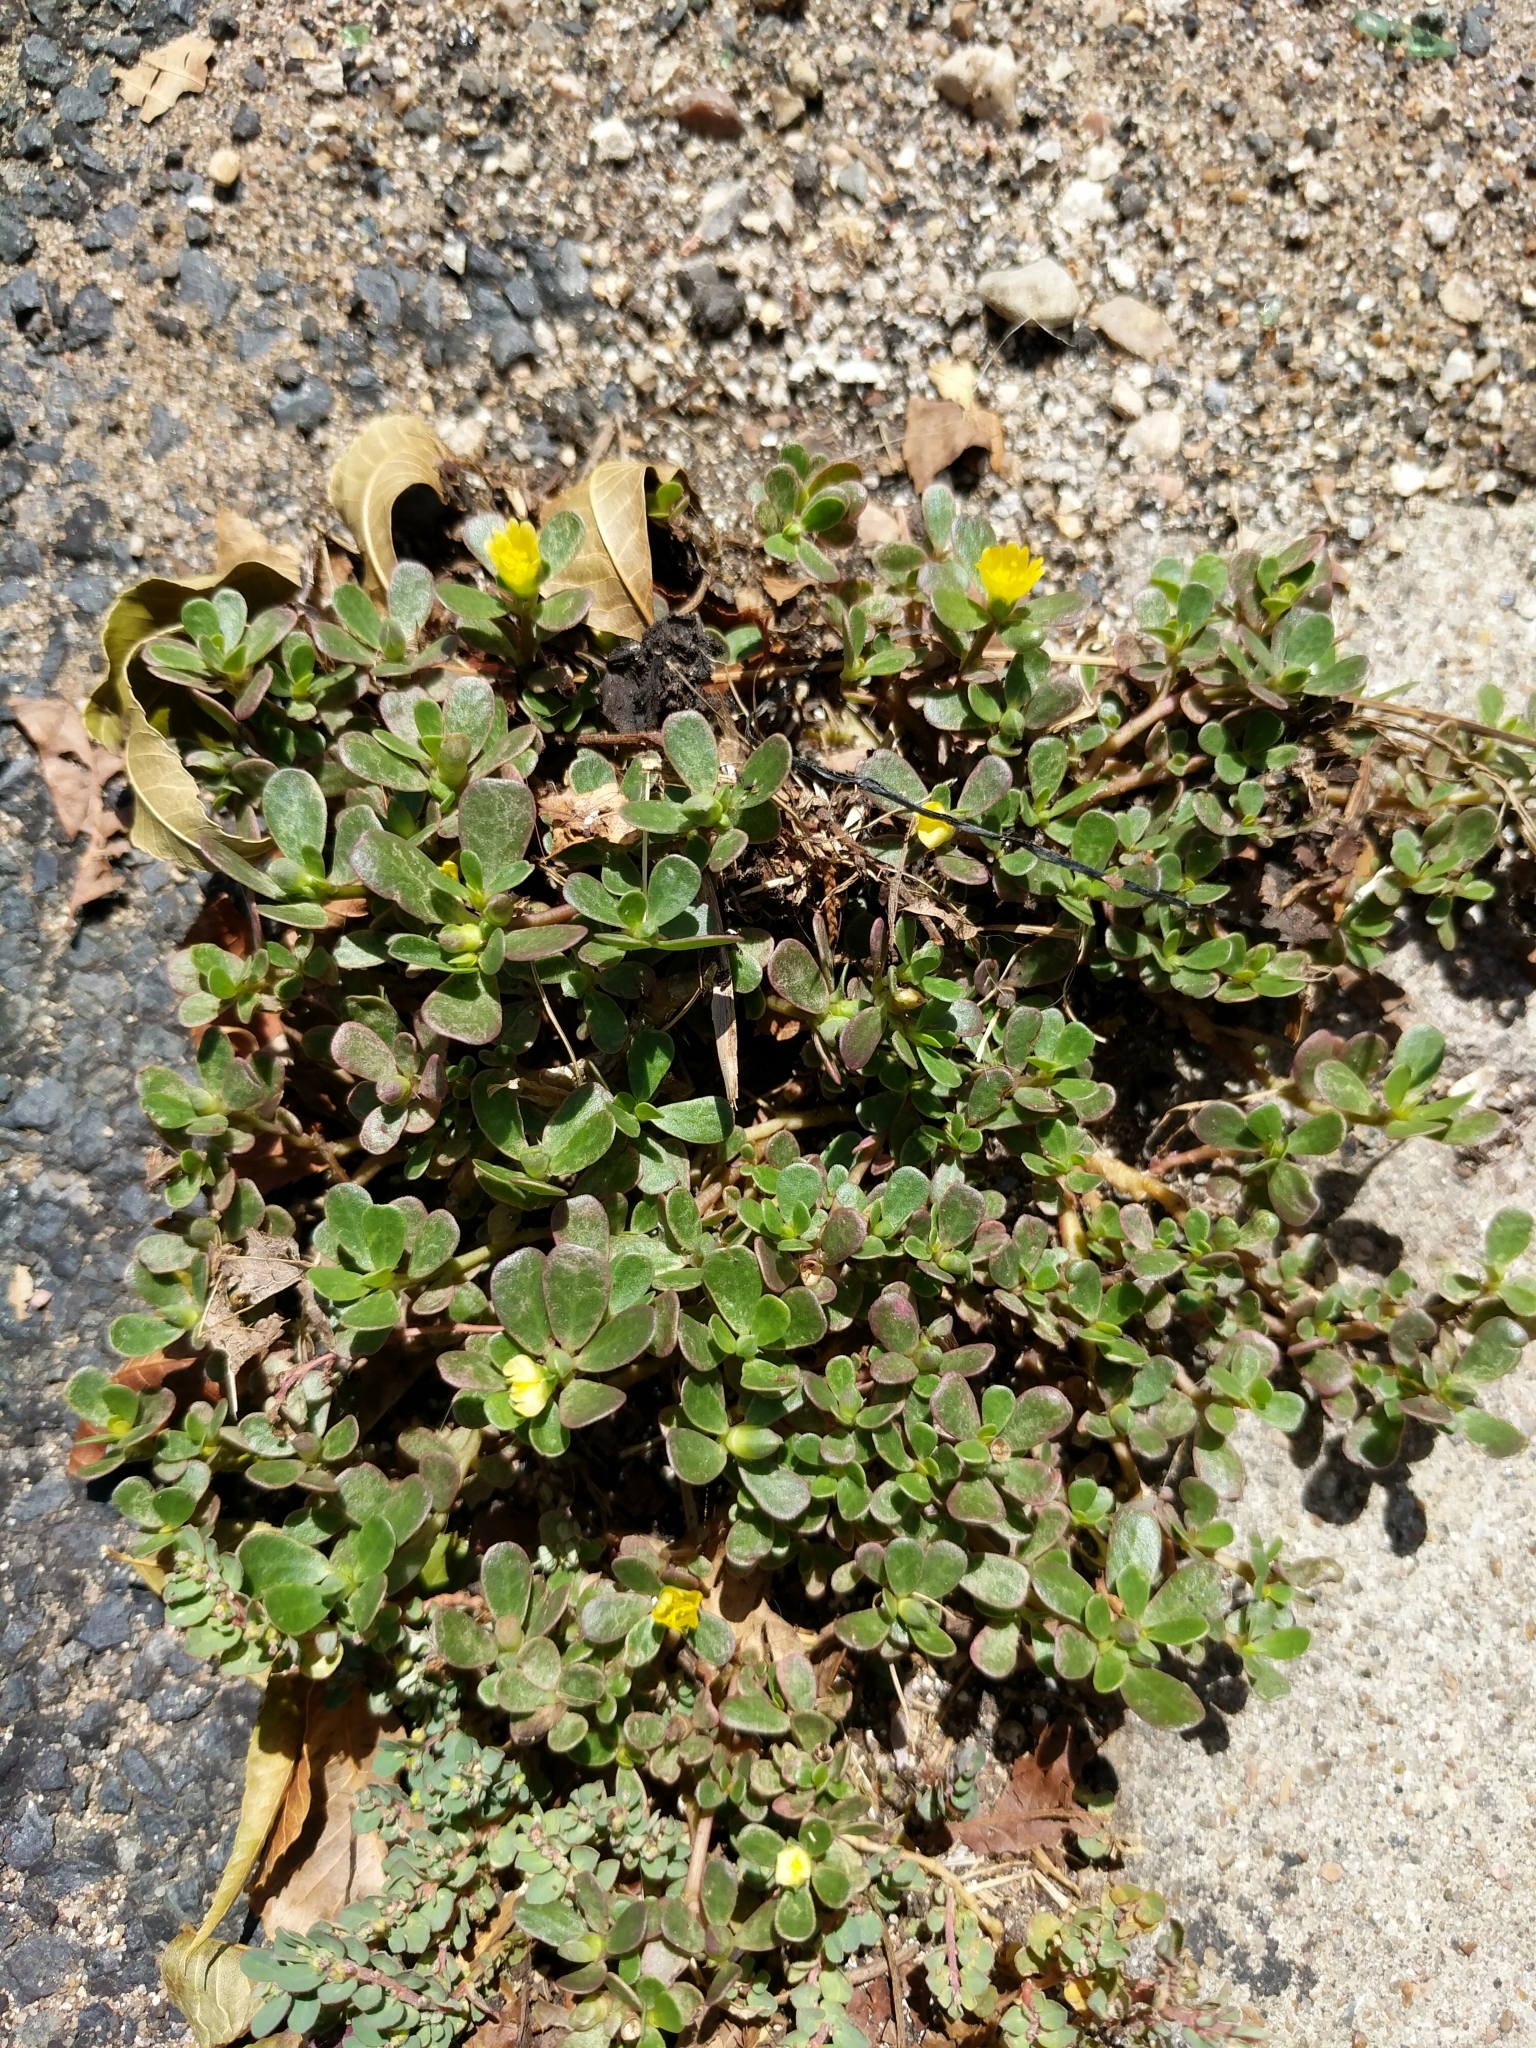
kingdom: Plantae
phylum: Tracheophyta
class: Magnoliopsida
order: Caryophyllales
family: Portulacaceae
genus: Portulaca
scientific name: Portulaca oleracea
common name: Common purslane
